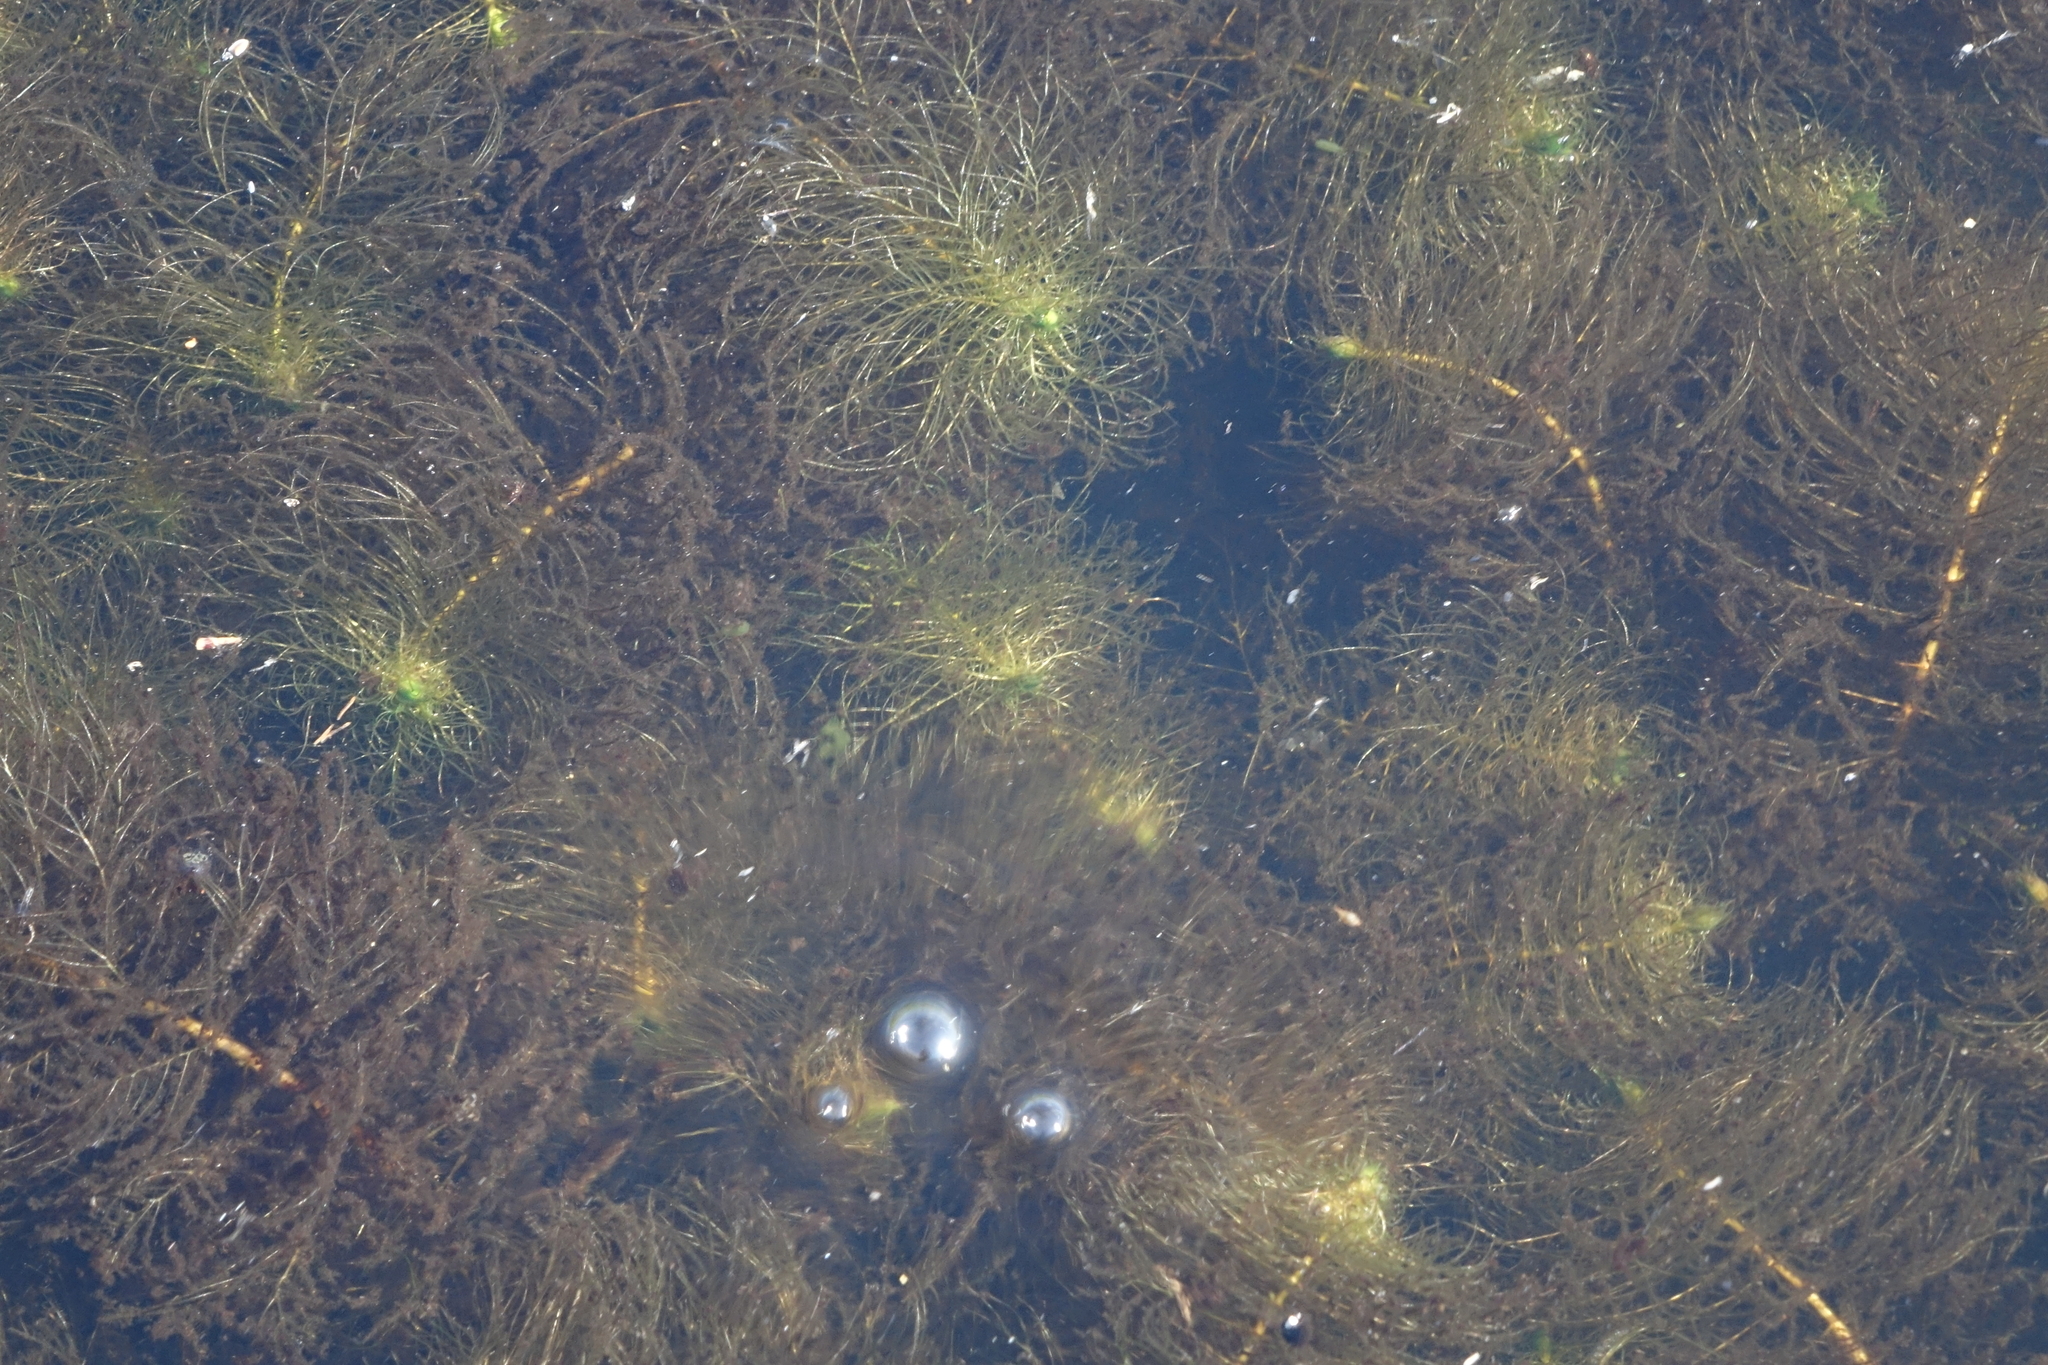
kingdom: Plantae
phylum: Tracheophyta
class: Magnoliopsida
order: Saxifragales
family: Haloragaceae
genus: Myriophyllum
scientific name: Myriophyllum verticillatum
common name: Whorled water-milfoil
